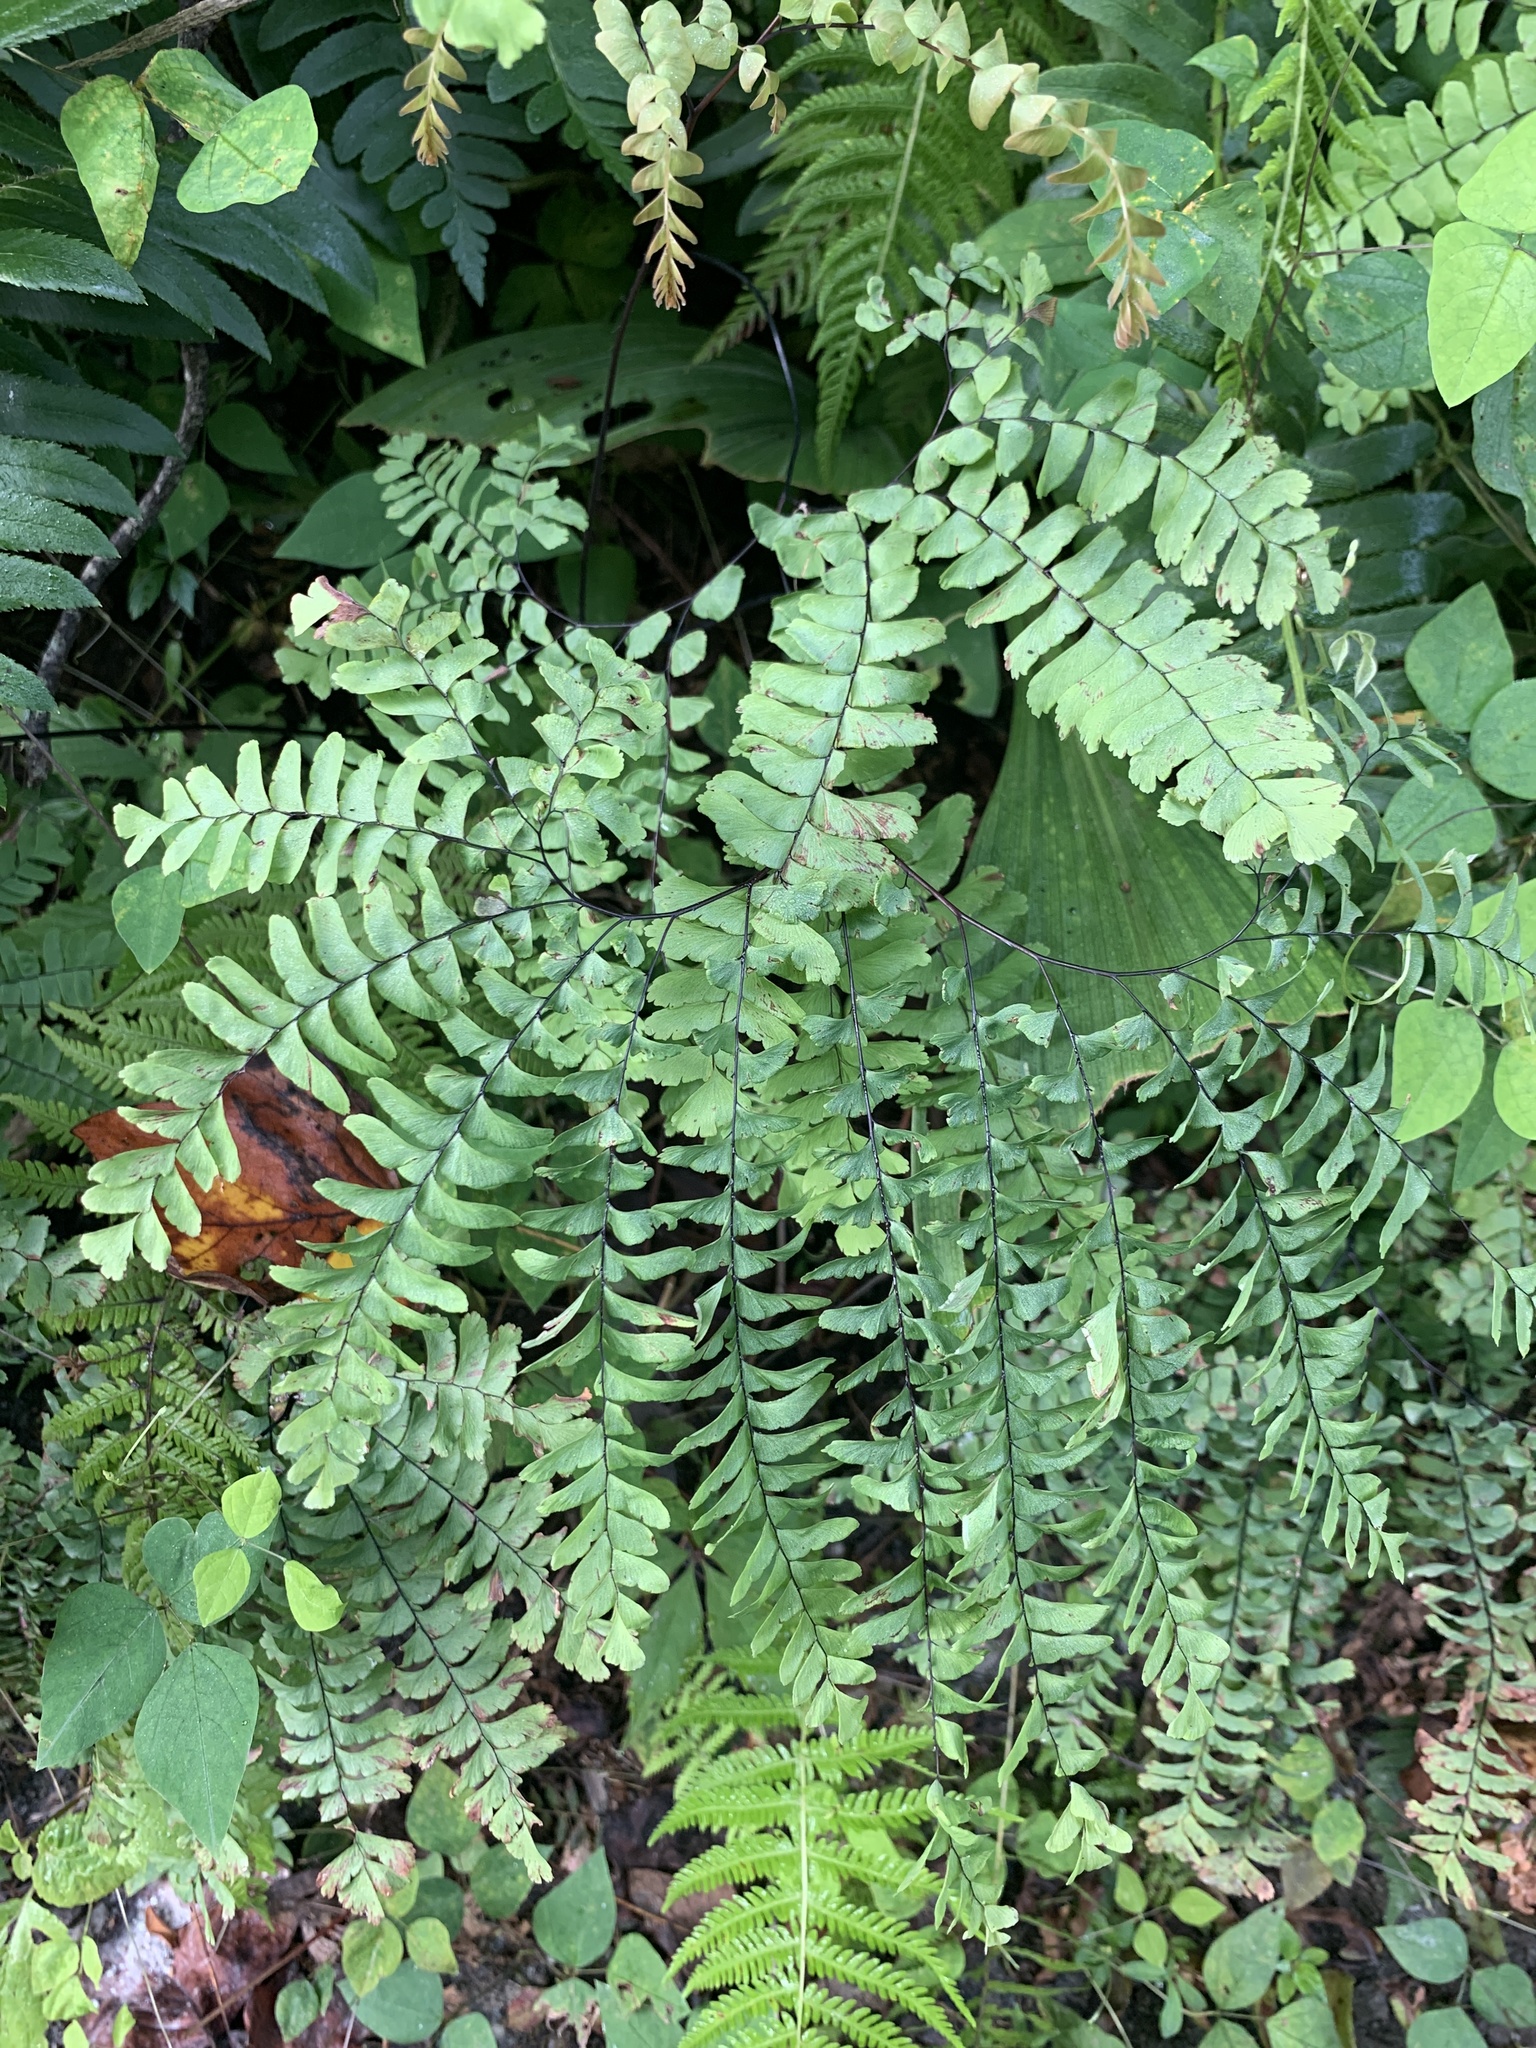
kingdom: Plantae
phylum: Tracheophyta
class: Polypodiopsida
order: Polypodiales
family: Pteridaceae
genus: Adiantum
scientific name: Adiantum pedatum
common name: Five-finger fern
